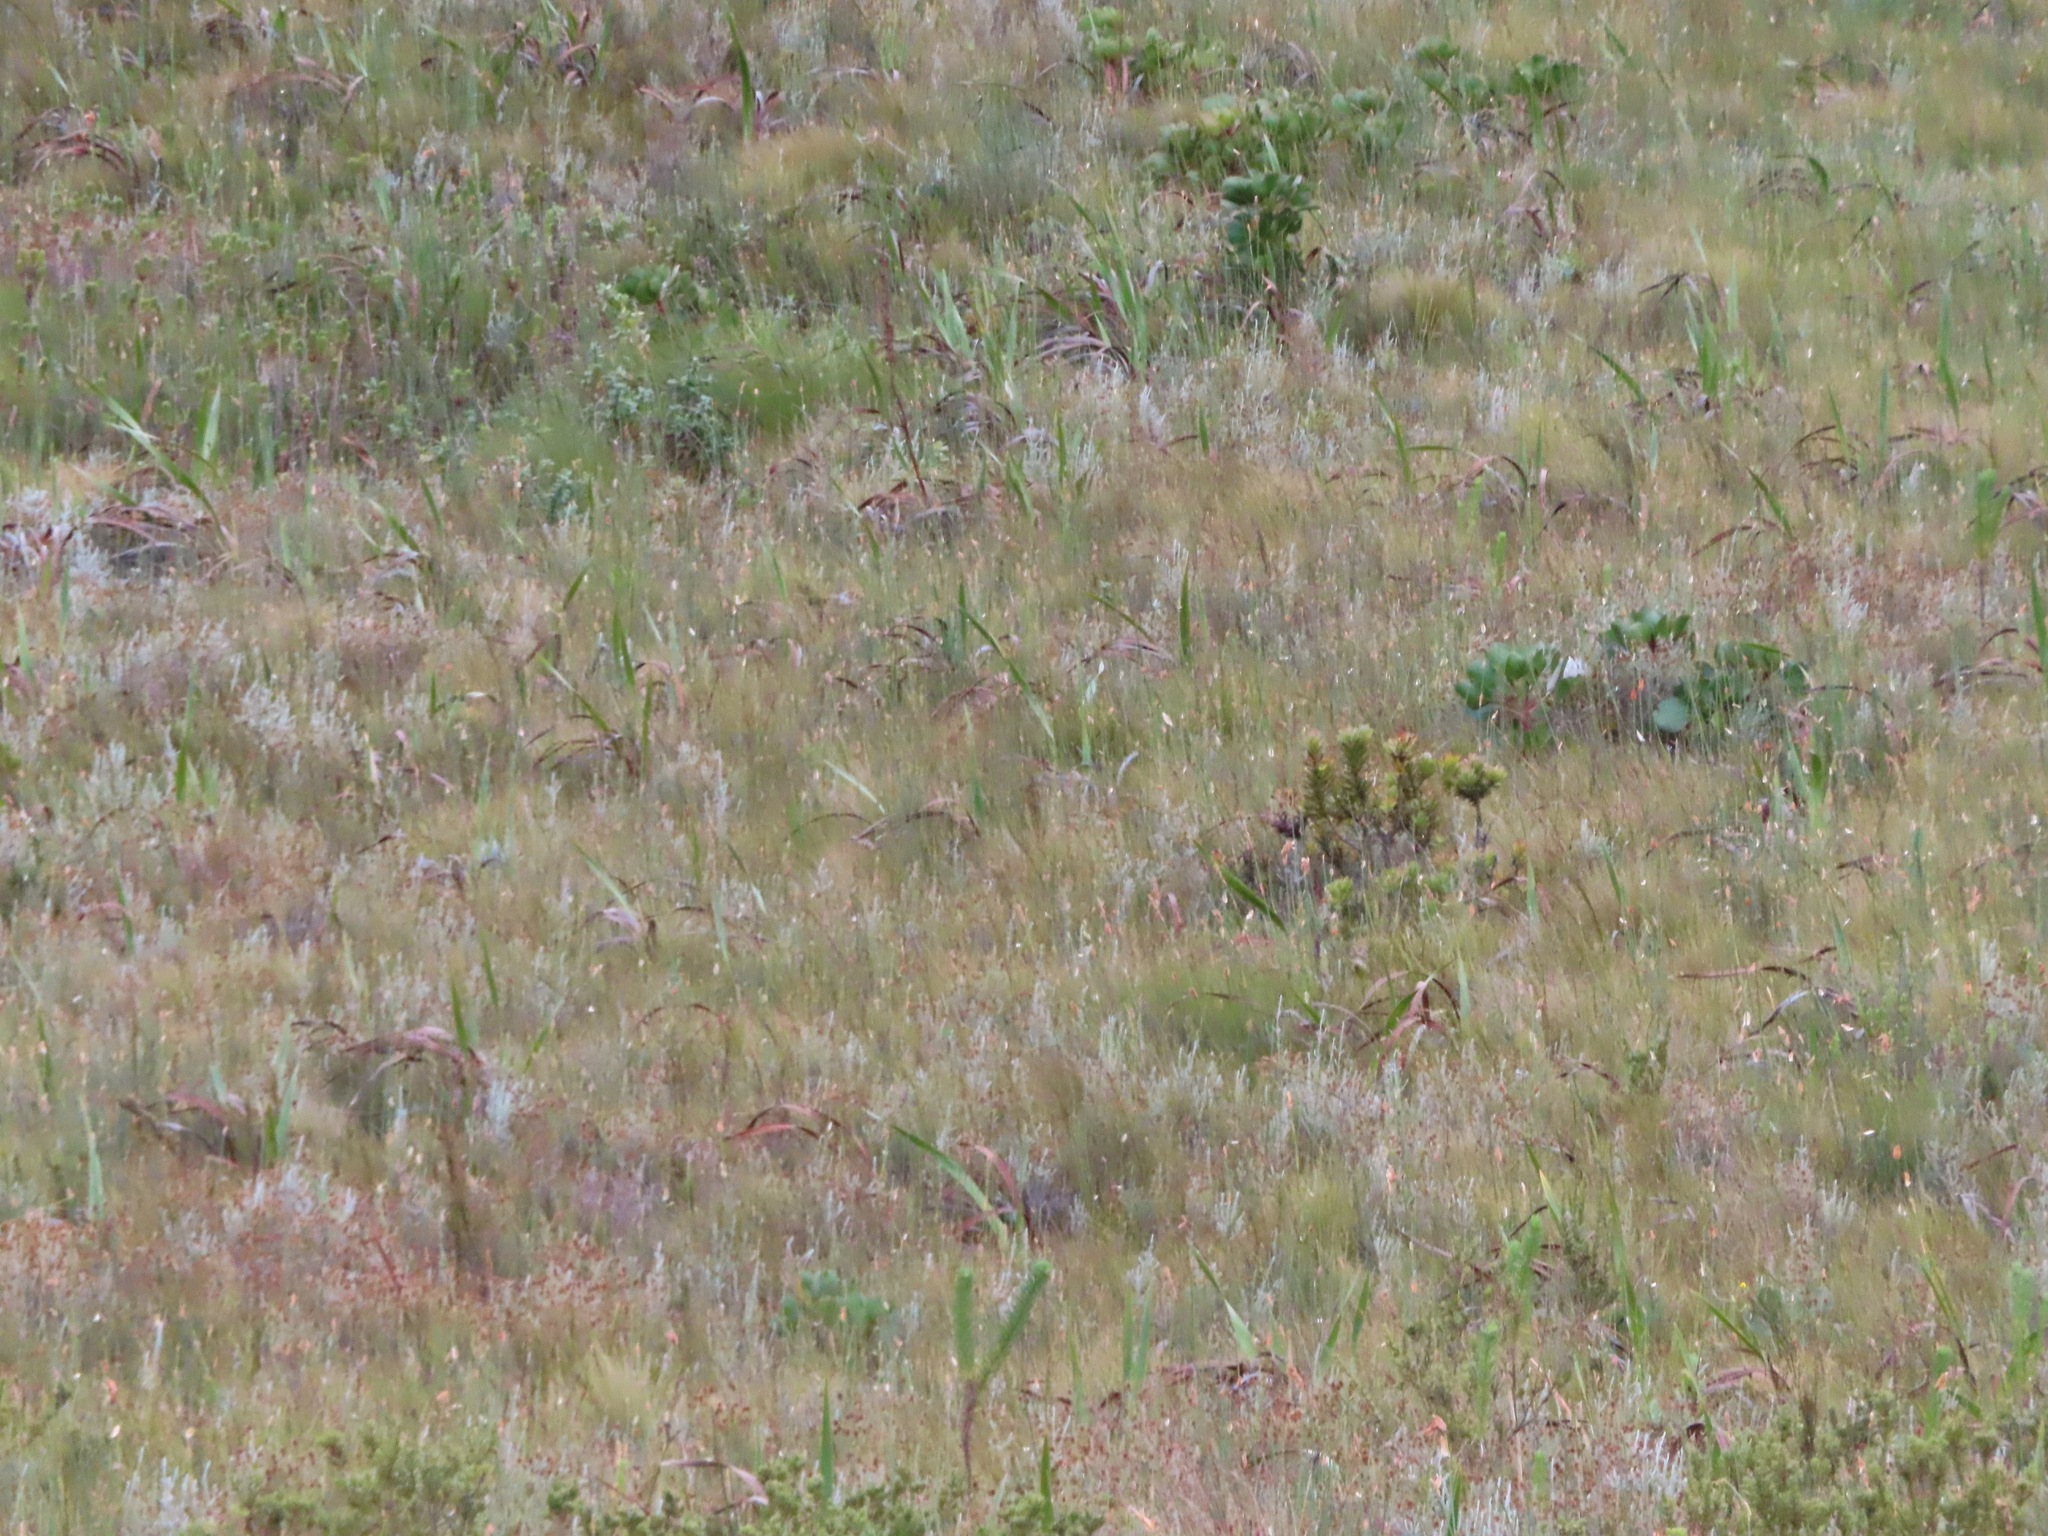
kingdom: Plantae
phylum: Tracheophyta
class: Liliopsida
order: Asparagales
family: Iridaceae
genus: Watsonia
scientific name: Watsonia borbonica
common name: Bugle-lily
